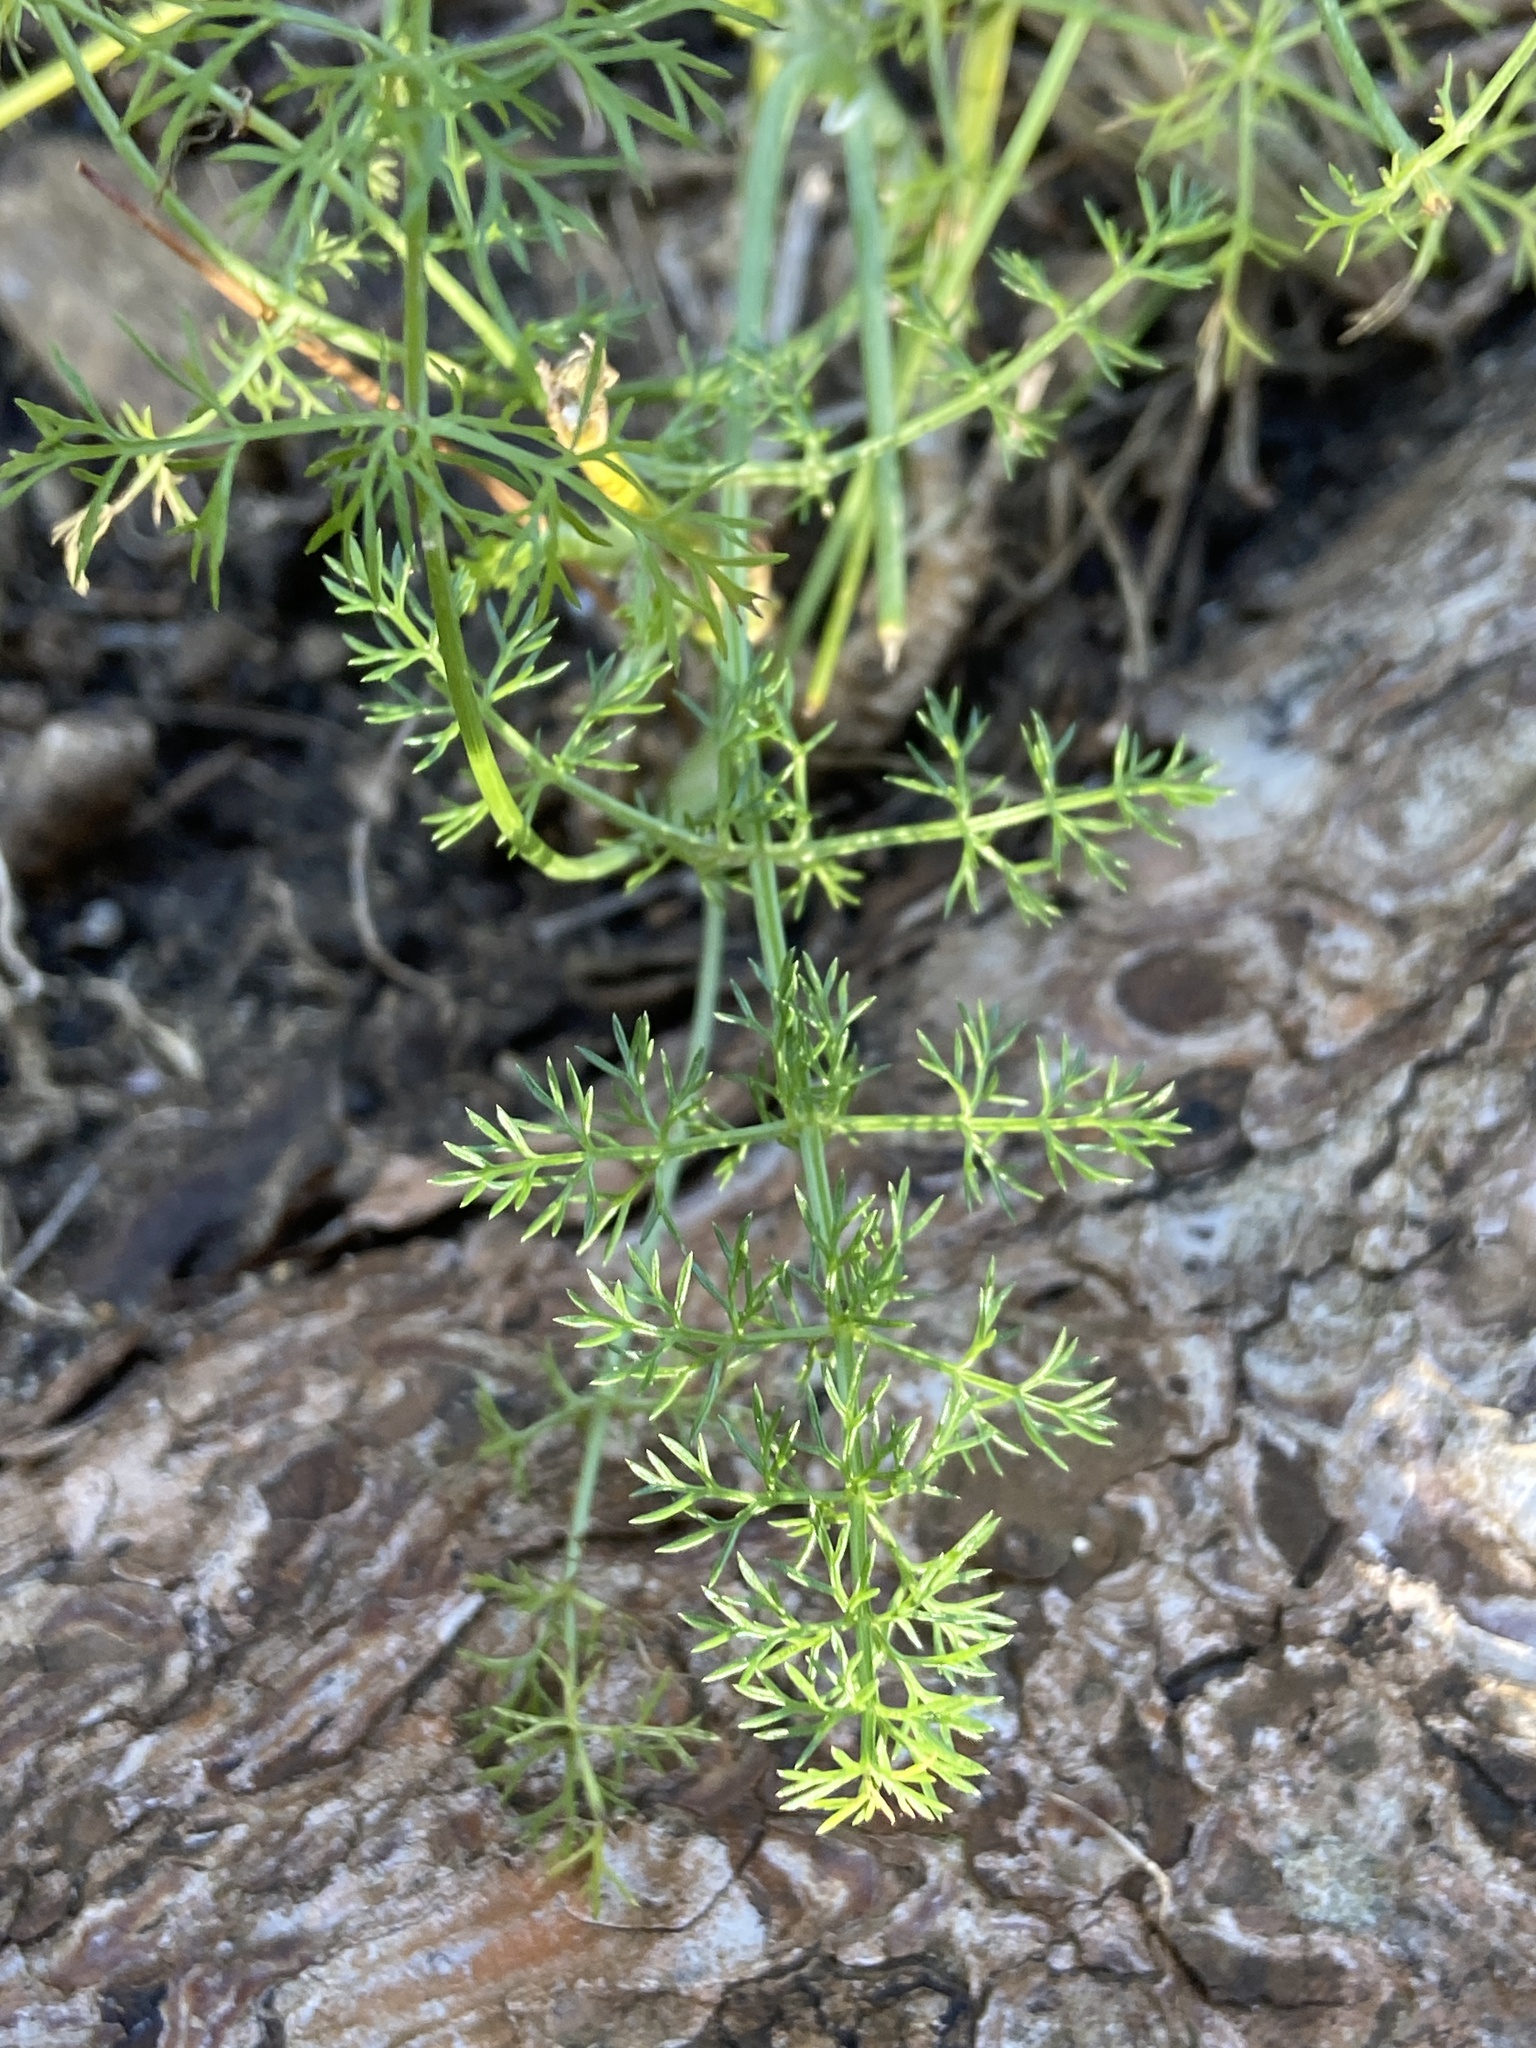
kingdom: Plantae
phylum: Tracheophyta
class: Magnoliopsida
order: Apiales
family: Apiaceae
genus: Foeniculum
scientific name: Foeniculum vulgare
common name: Fennel
